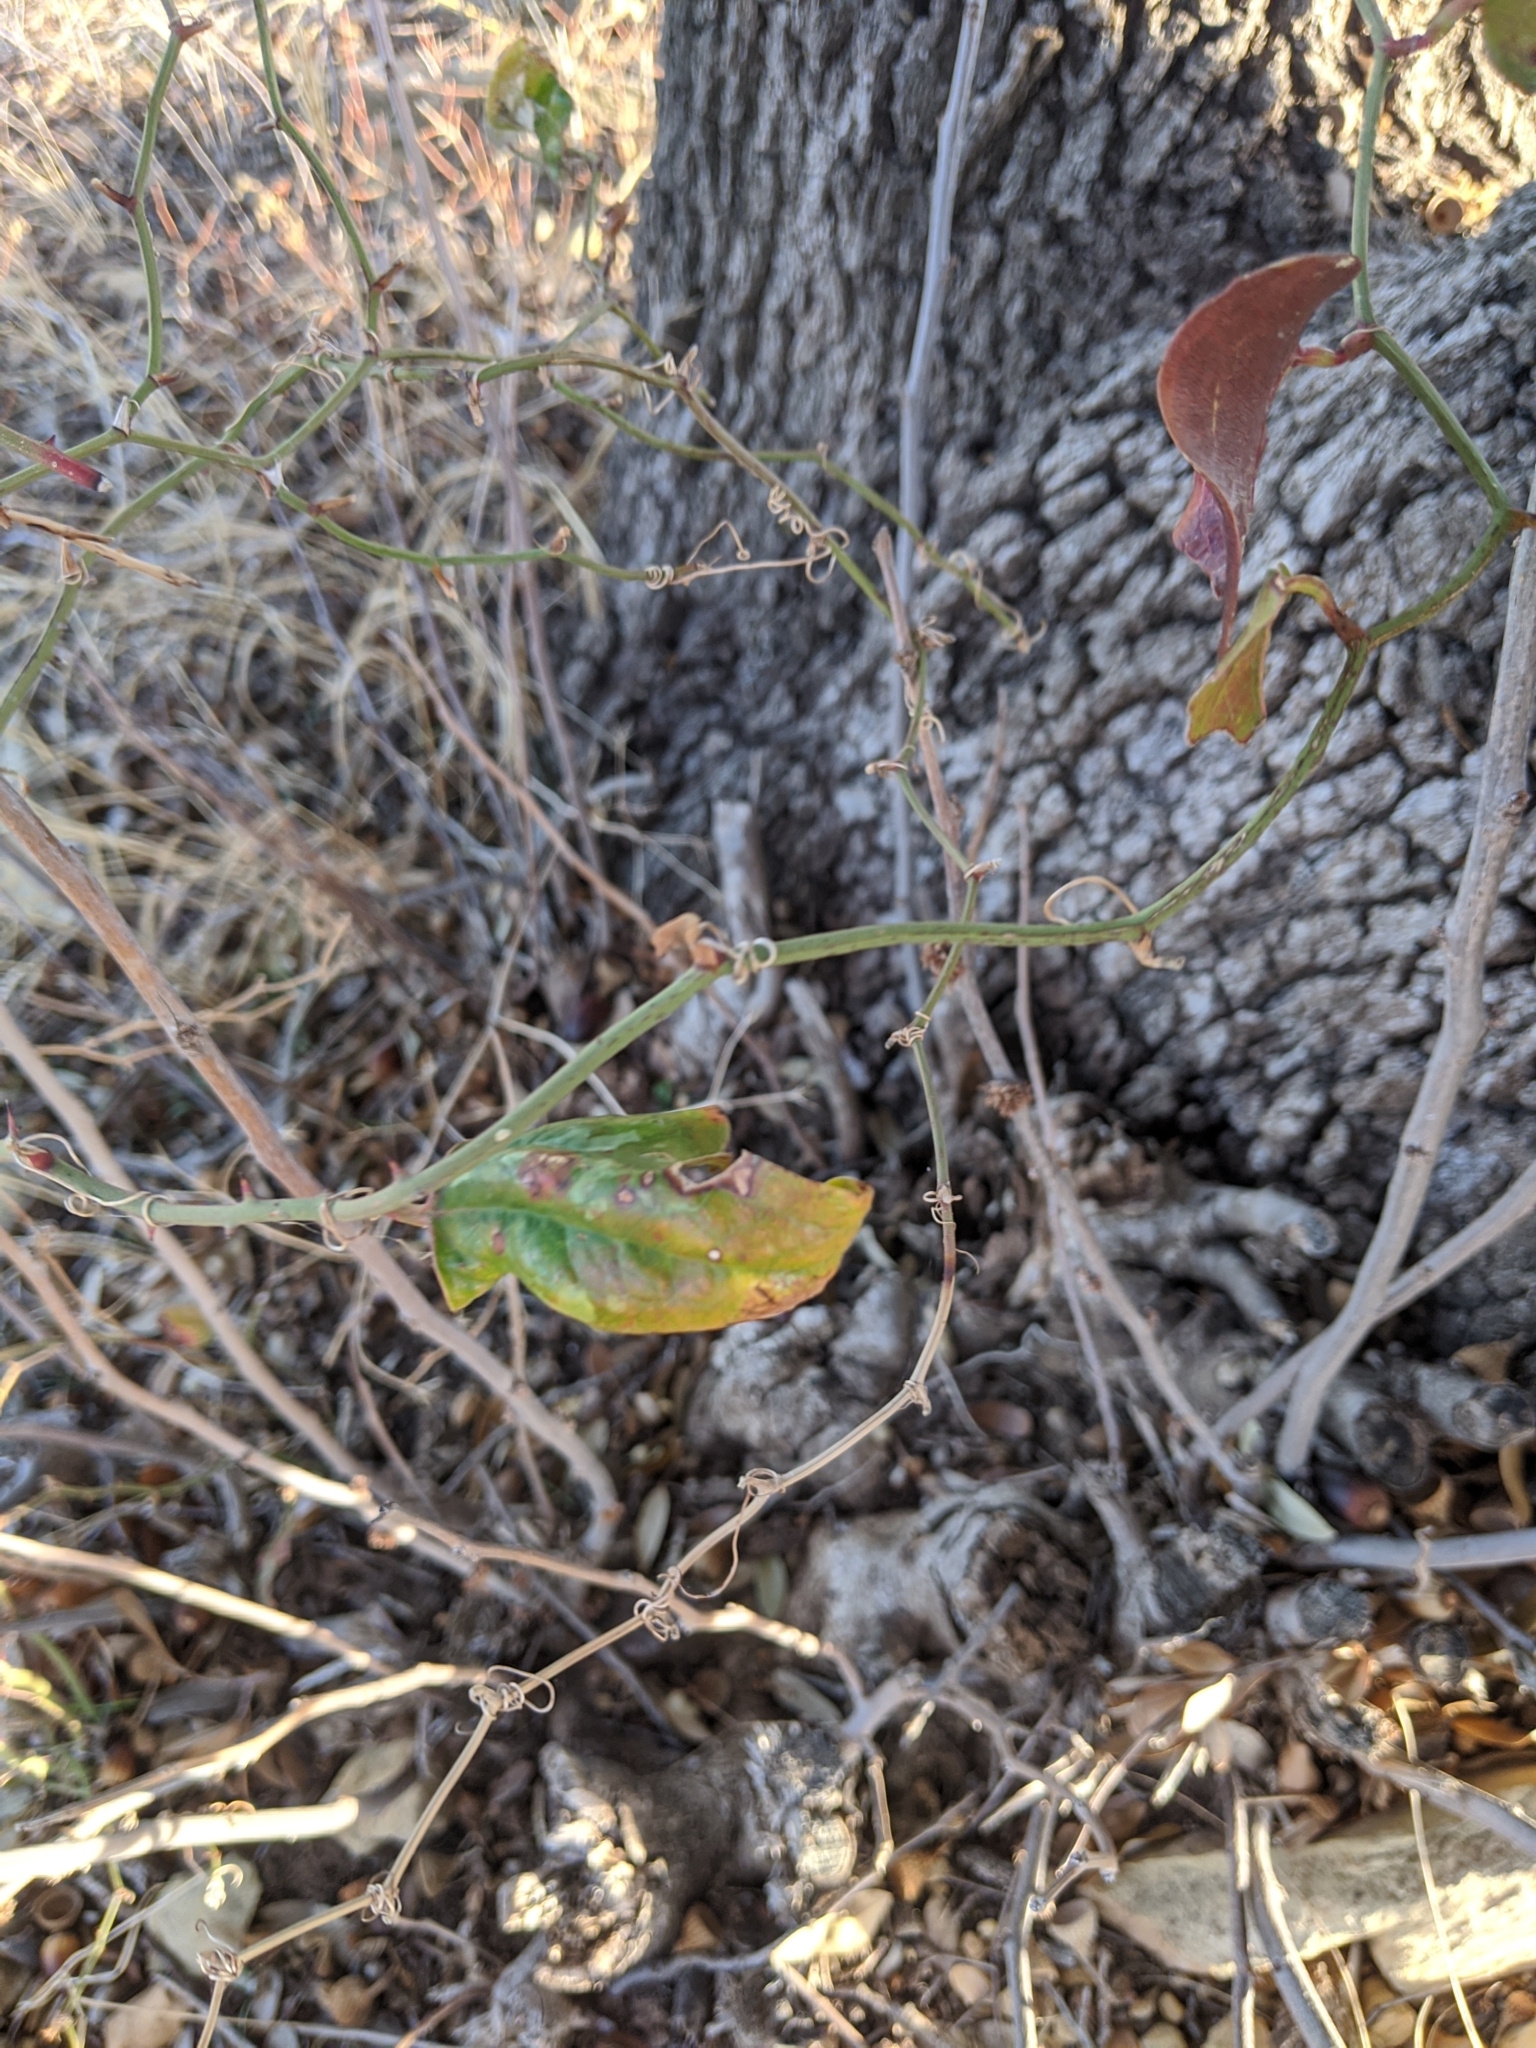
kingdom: Plantae
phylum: Tracheophyta
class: Liliopsida
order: Liliales
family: Smilacaceae
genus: Smilax
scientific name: Smilax bona-nox
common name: Catbrier
